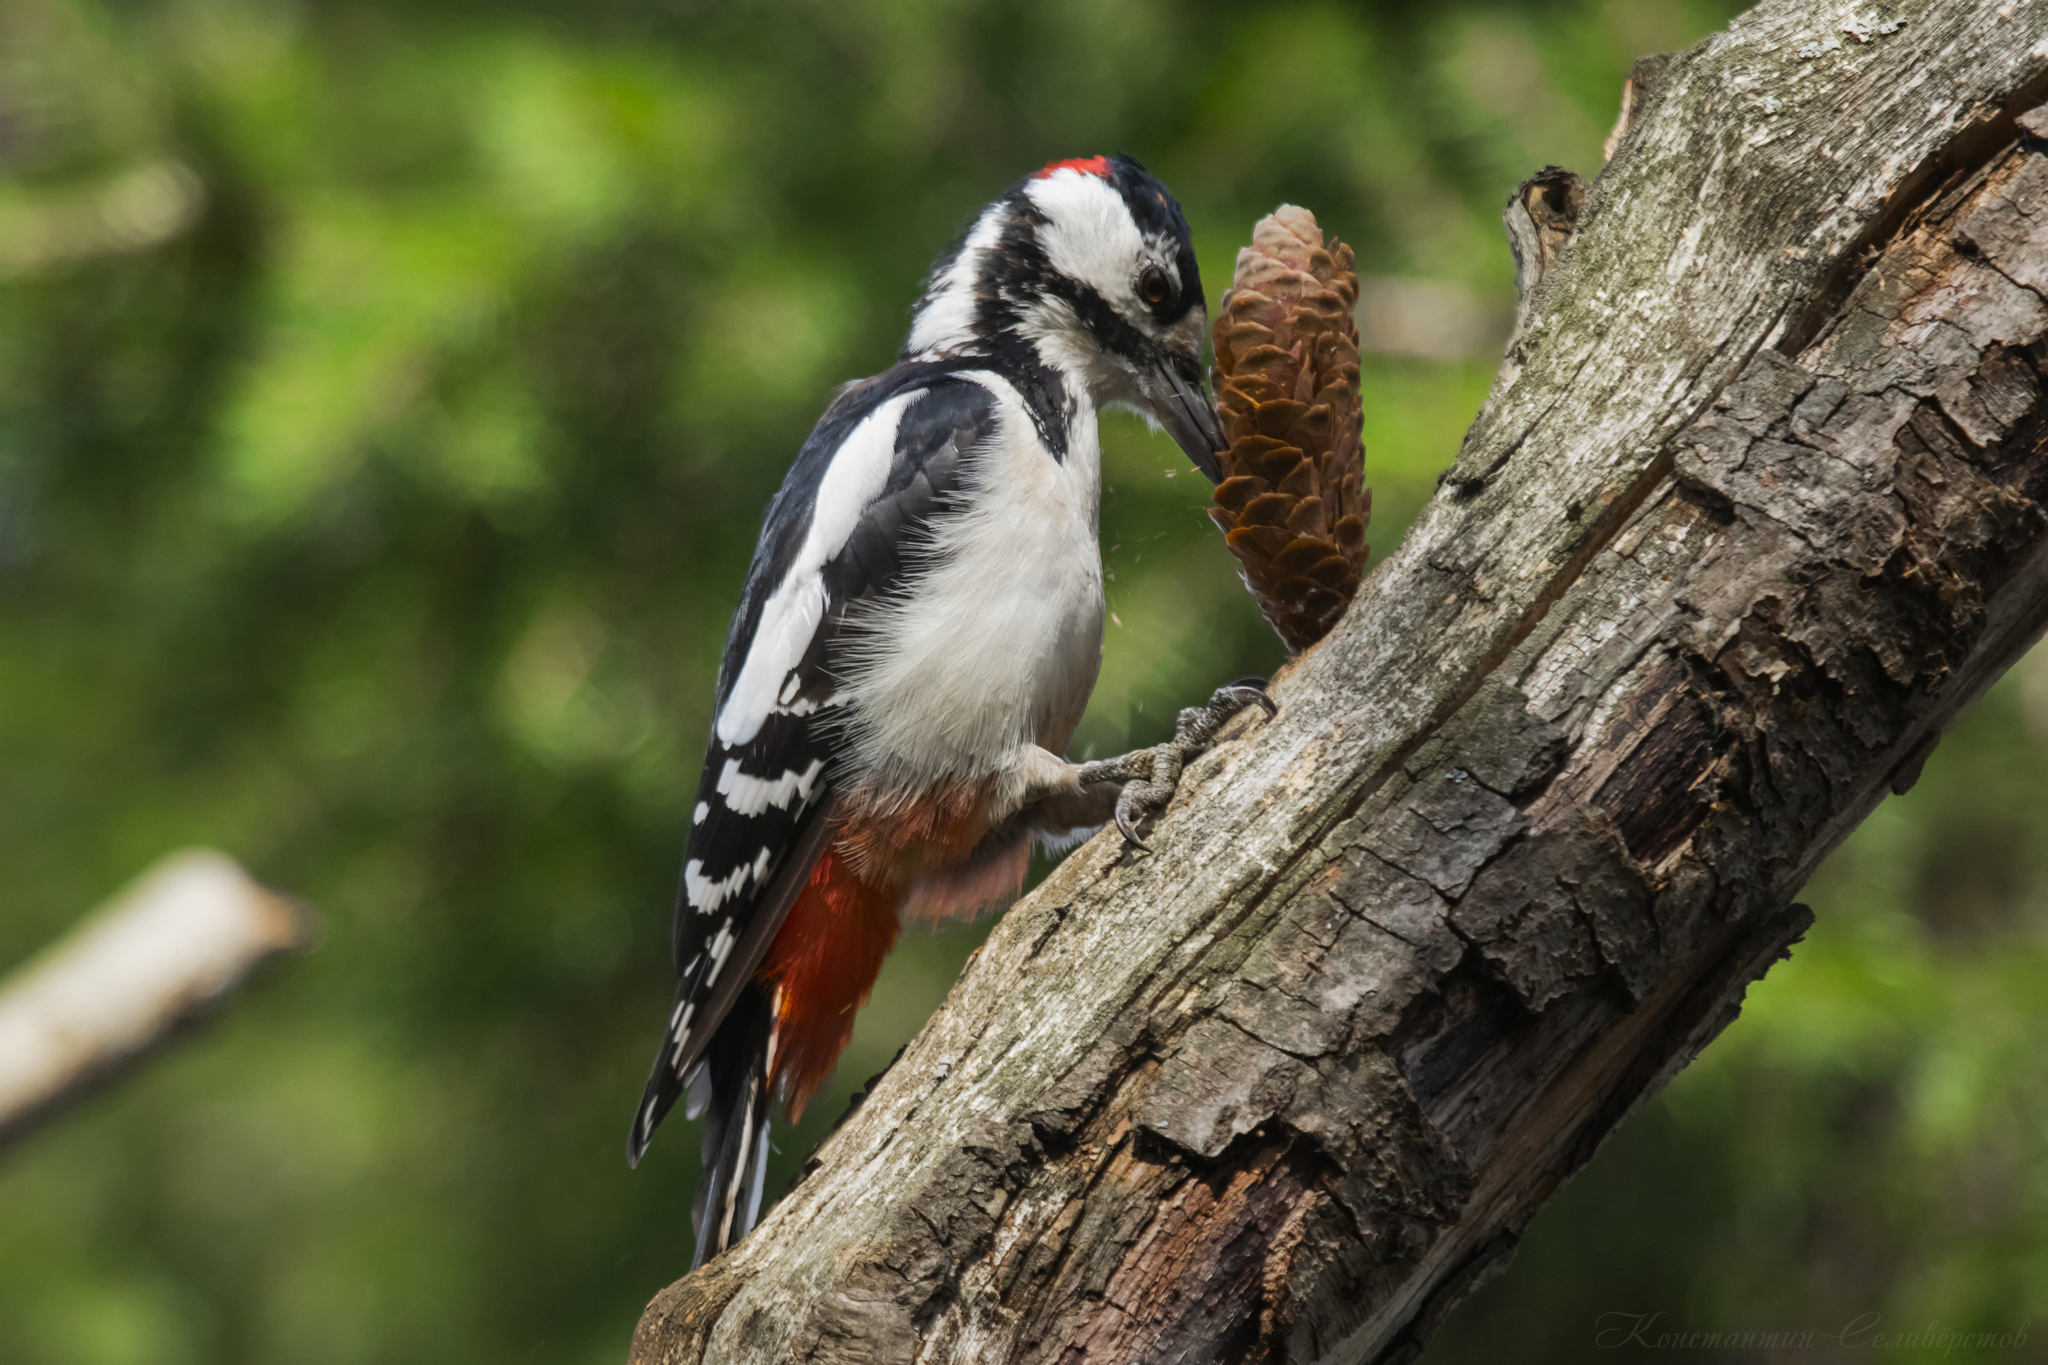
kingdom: Animalia
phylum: Chordata
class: Aves
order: Piciformes
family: Picidae
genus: Dendrocopos
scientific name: Dendrocopos major
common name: Great spotted woodpecker
